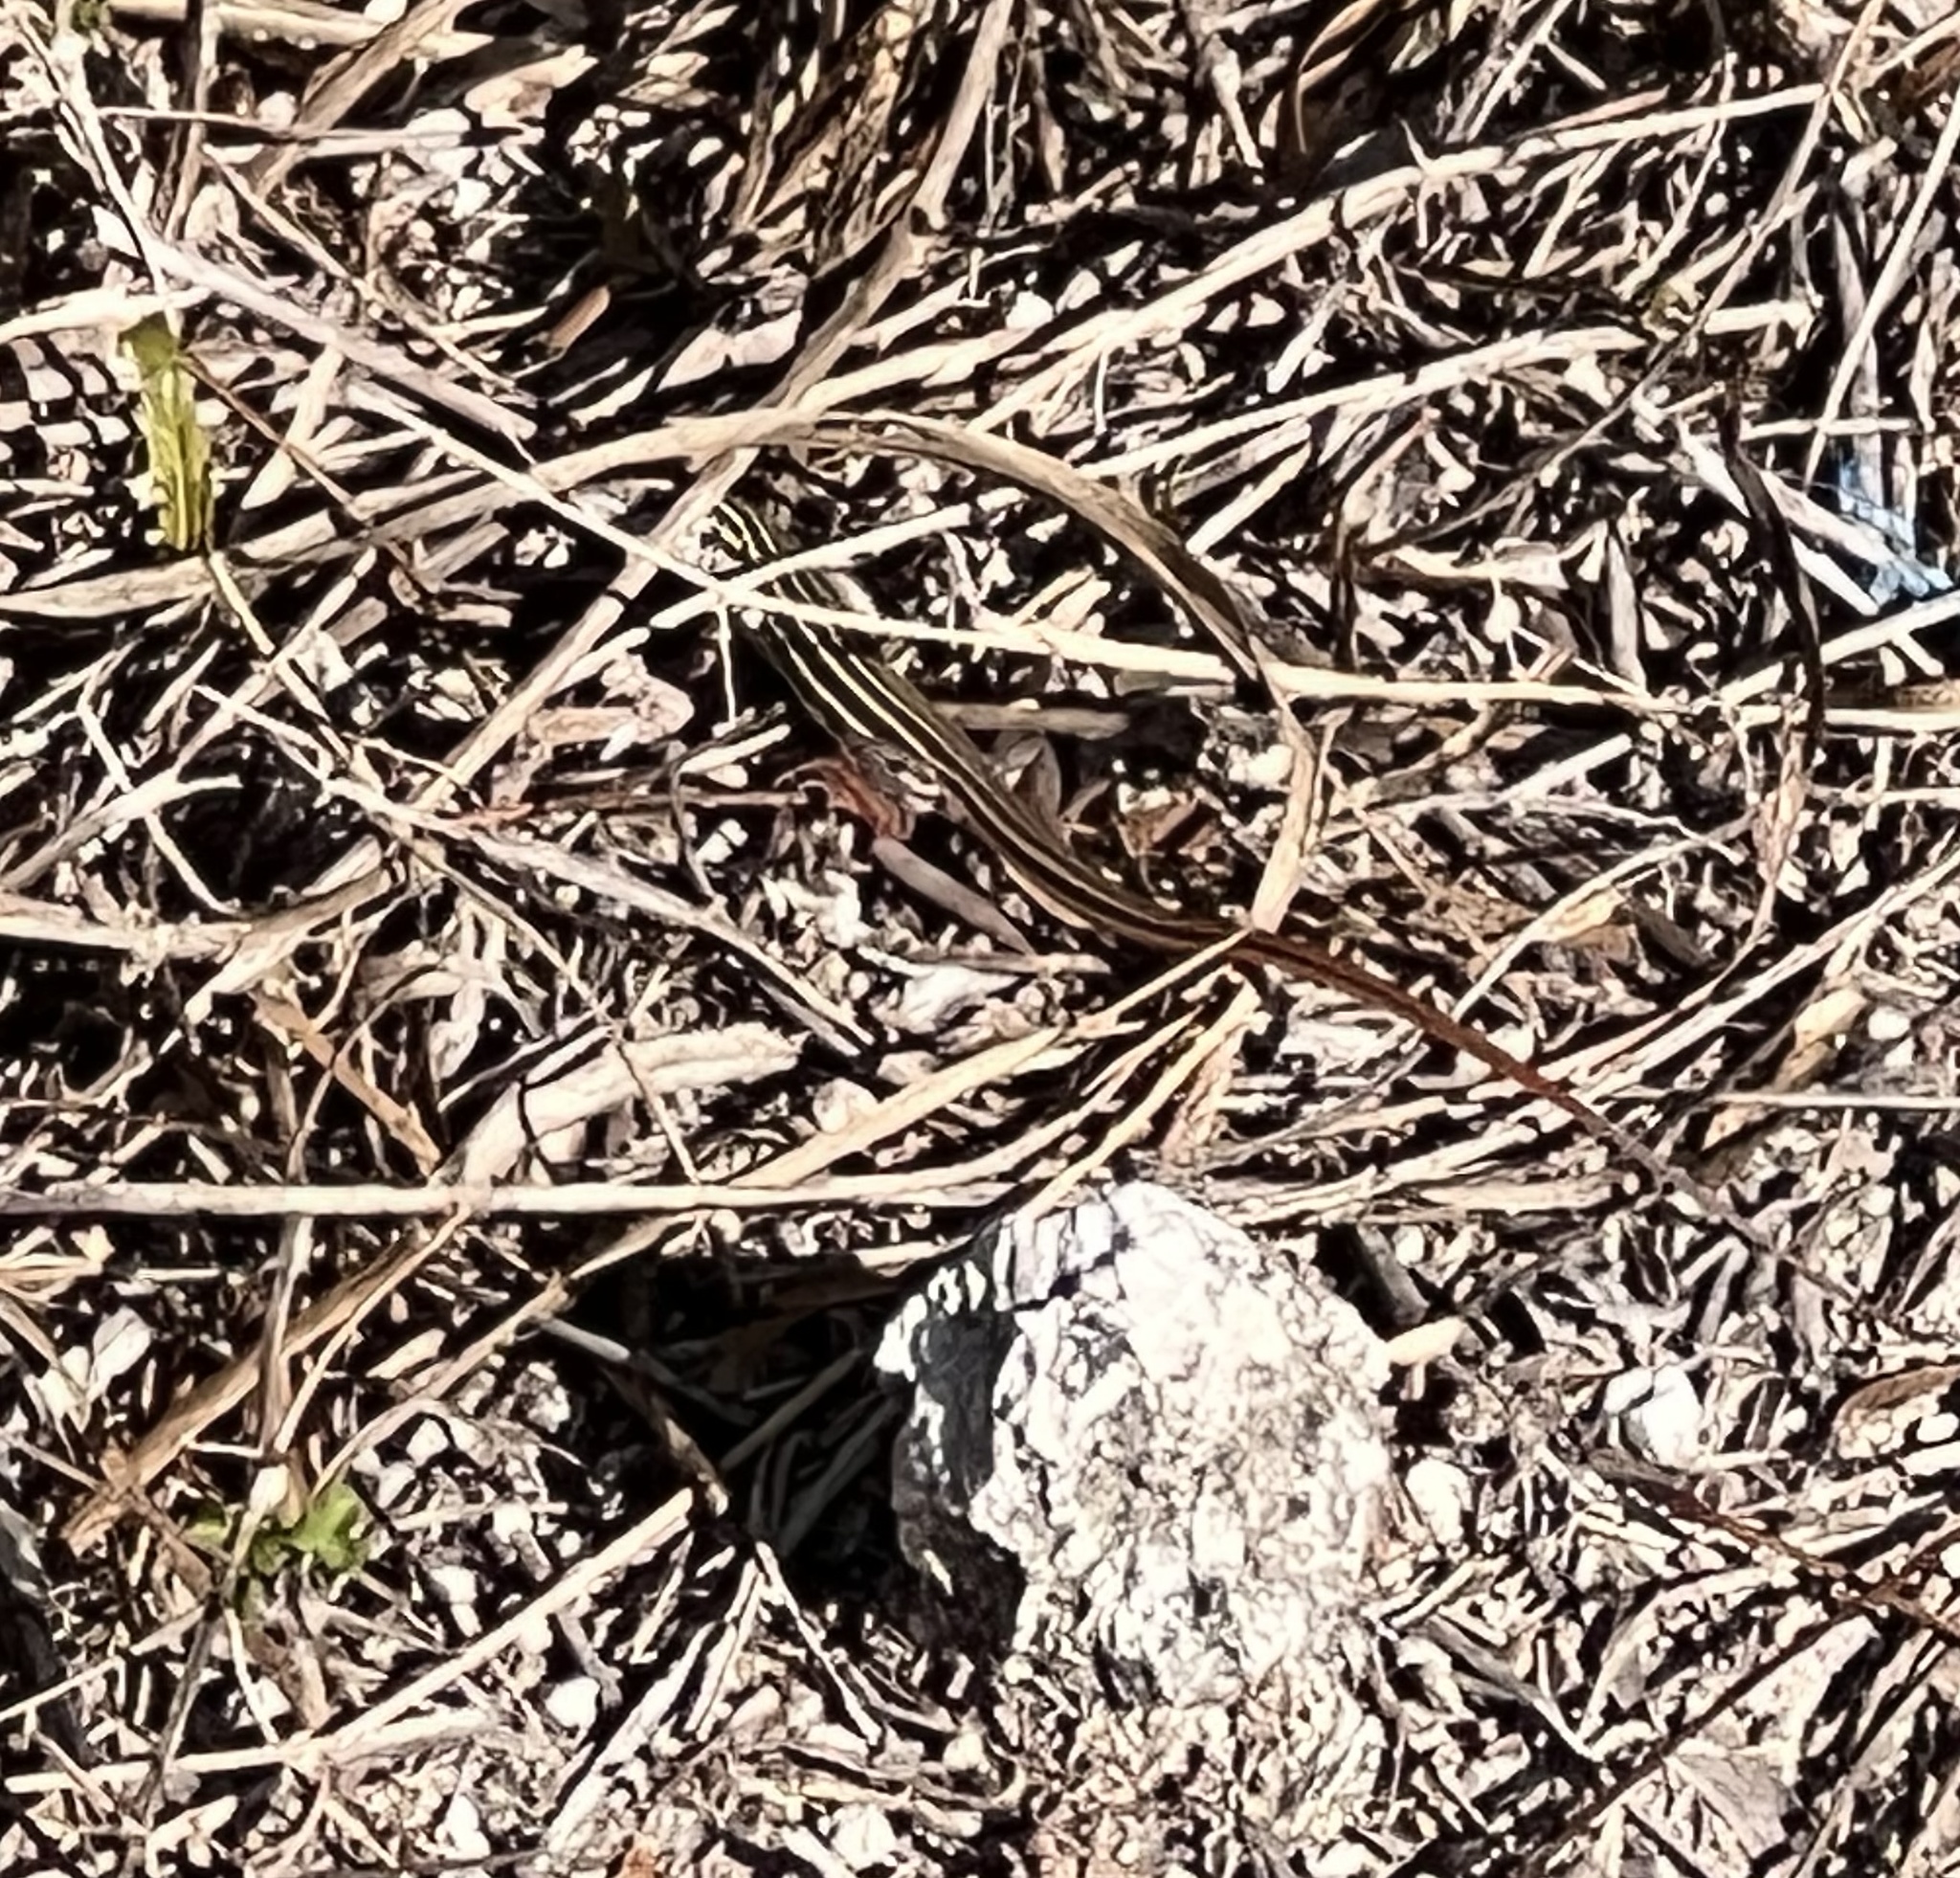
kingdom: Animalia
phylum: Chordata
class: Squamata
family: Teiidae
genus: Aspidoscelis
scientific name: Aspidoscelis gularis
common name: Eastern spotted whiptail
